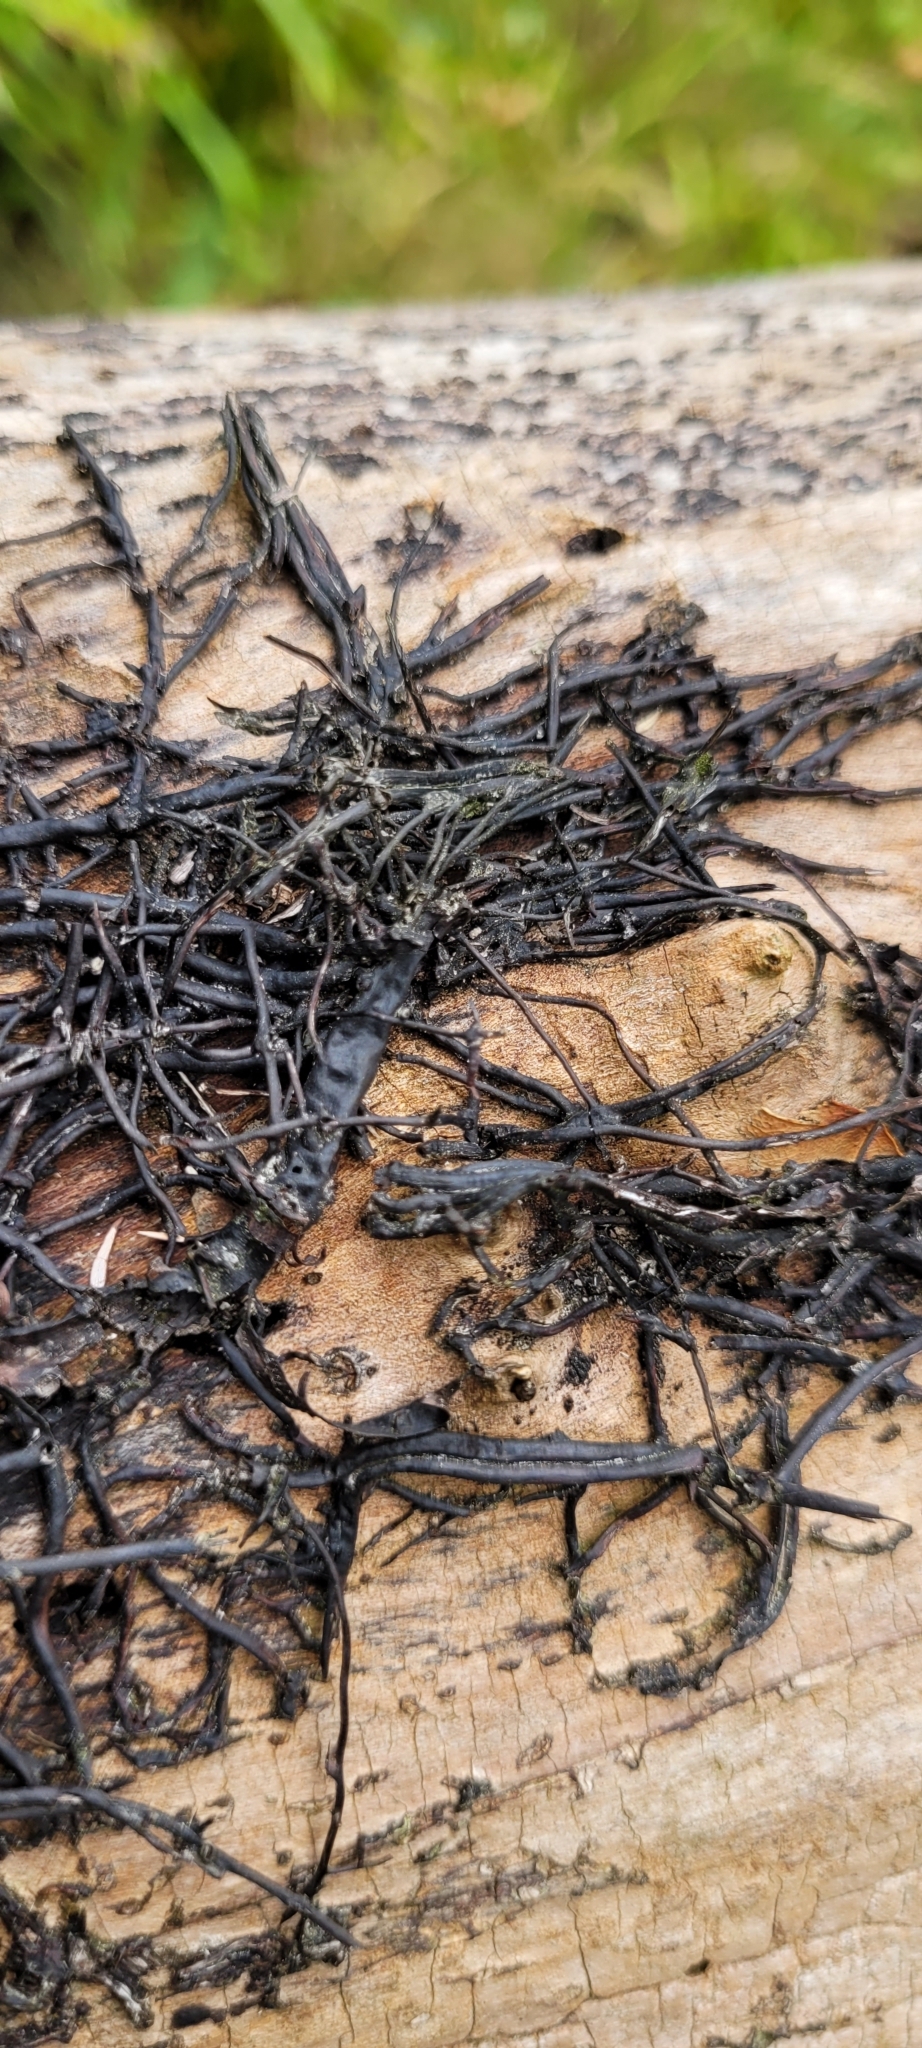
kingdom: Fungi
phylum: Basidiomycota
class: Agaricomycetes
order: Agaricales
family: Physalacriaceae
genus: Armillaria
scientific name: Armillaria mellea
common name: Honey fungus
